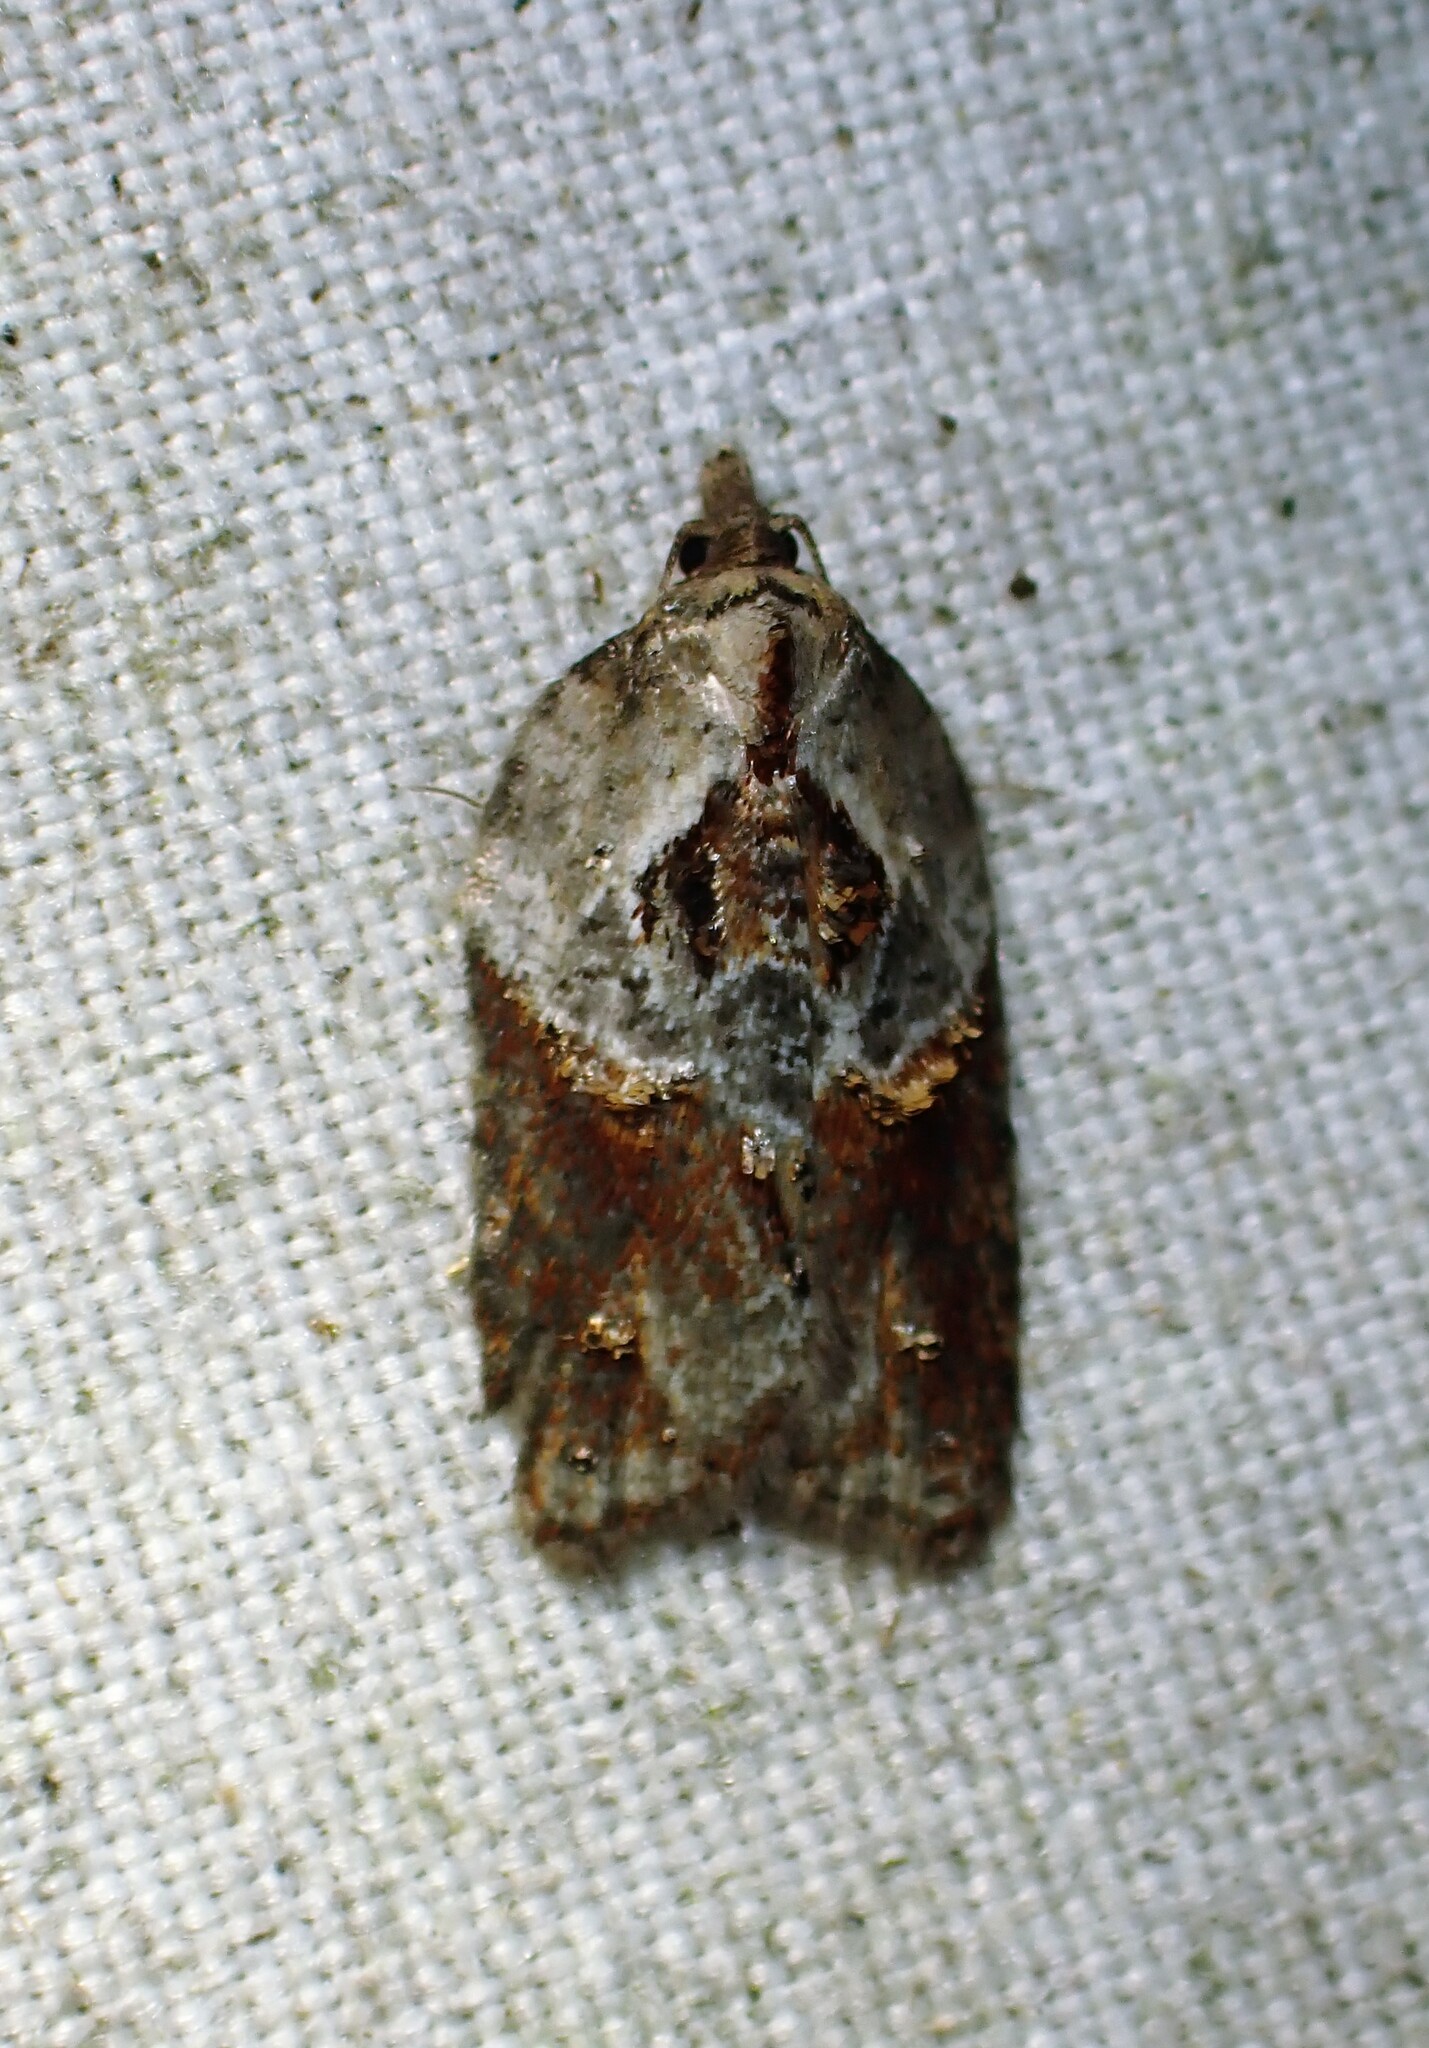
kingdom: Animalia
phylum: Arthropoda
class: Insecta
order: Lepidoptera
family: Tortricidae
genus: Acleris
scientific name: Acleris inana
